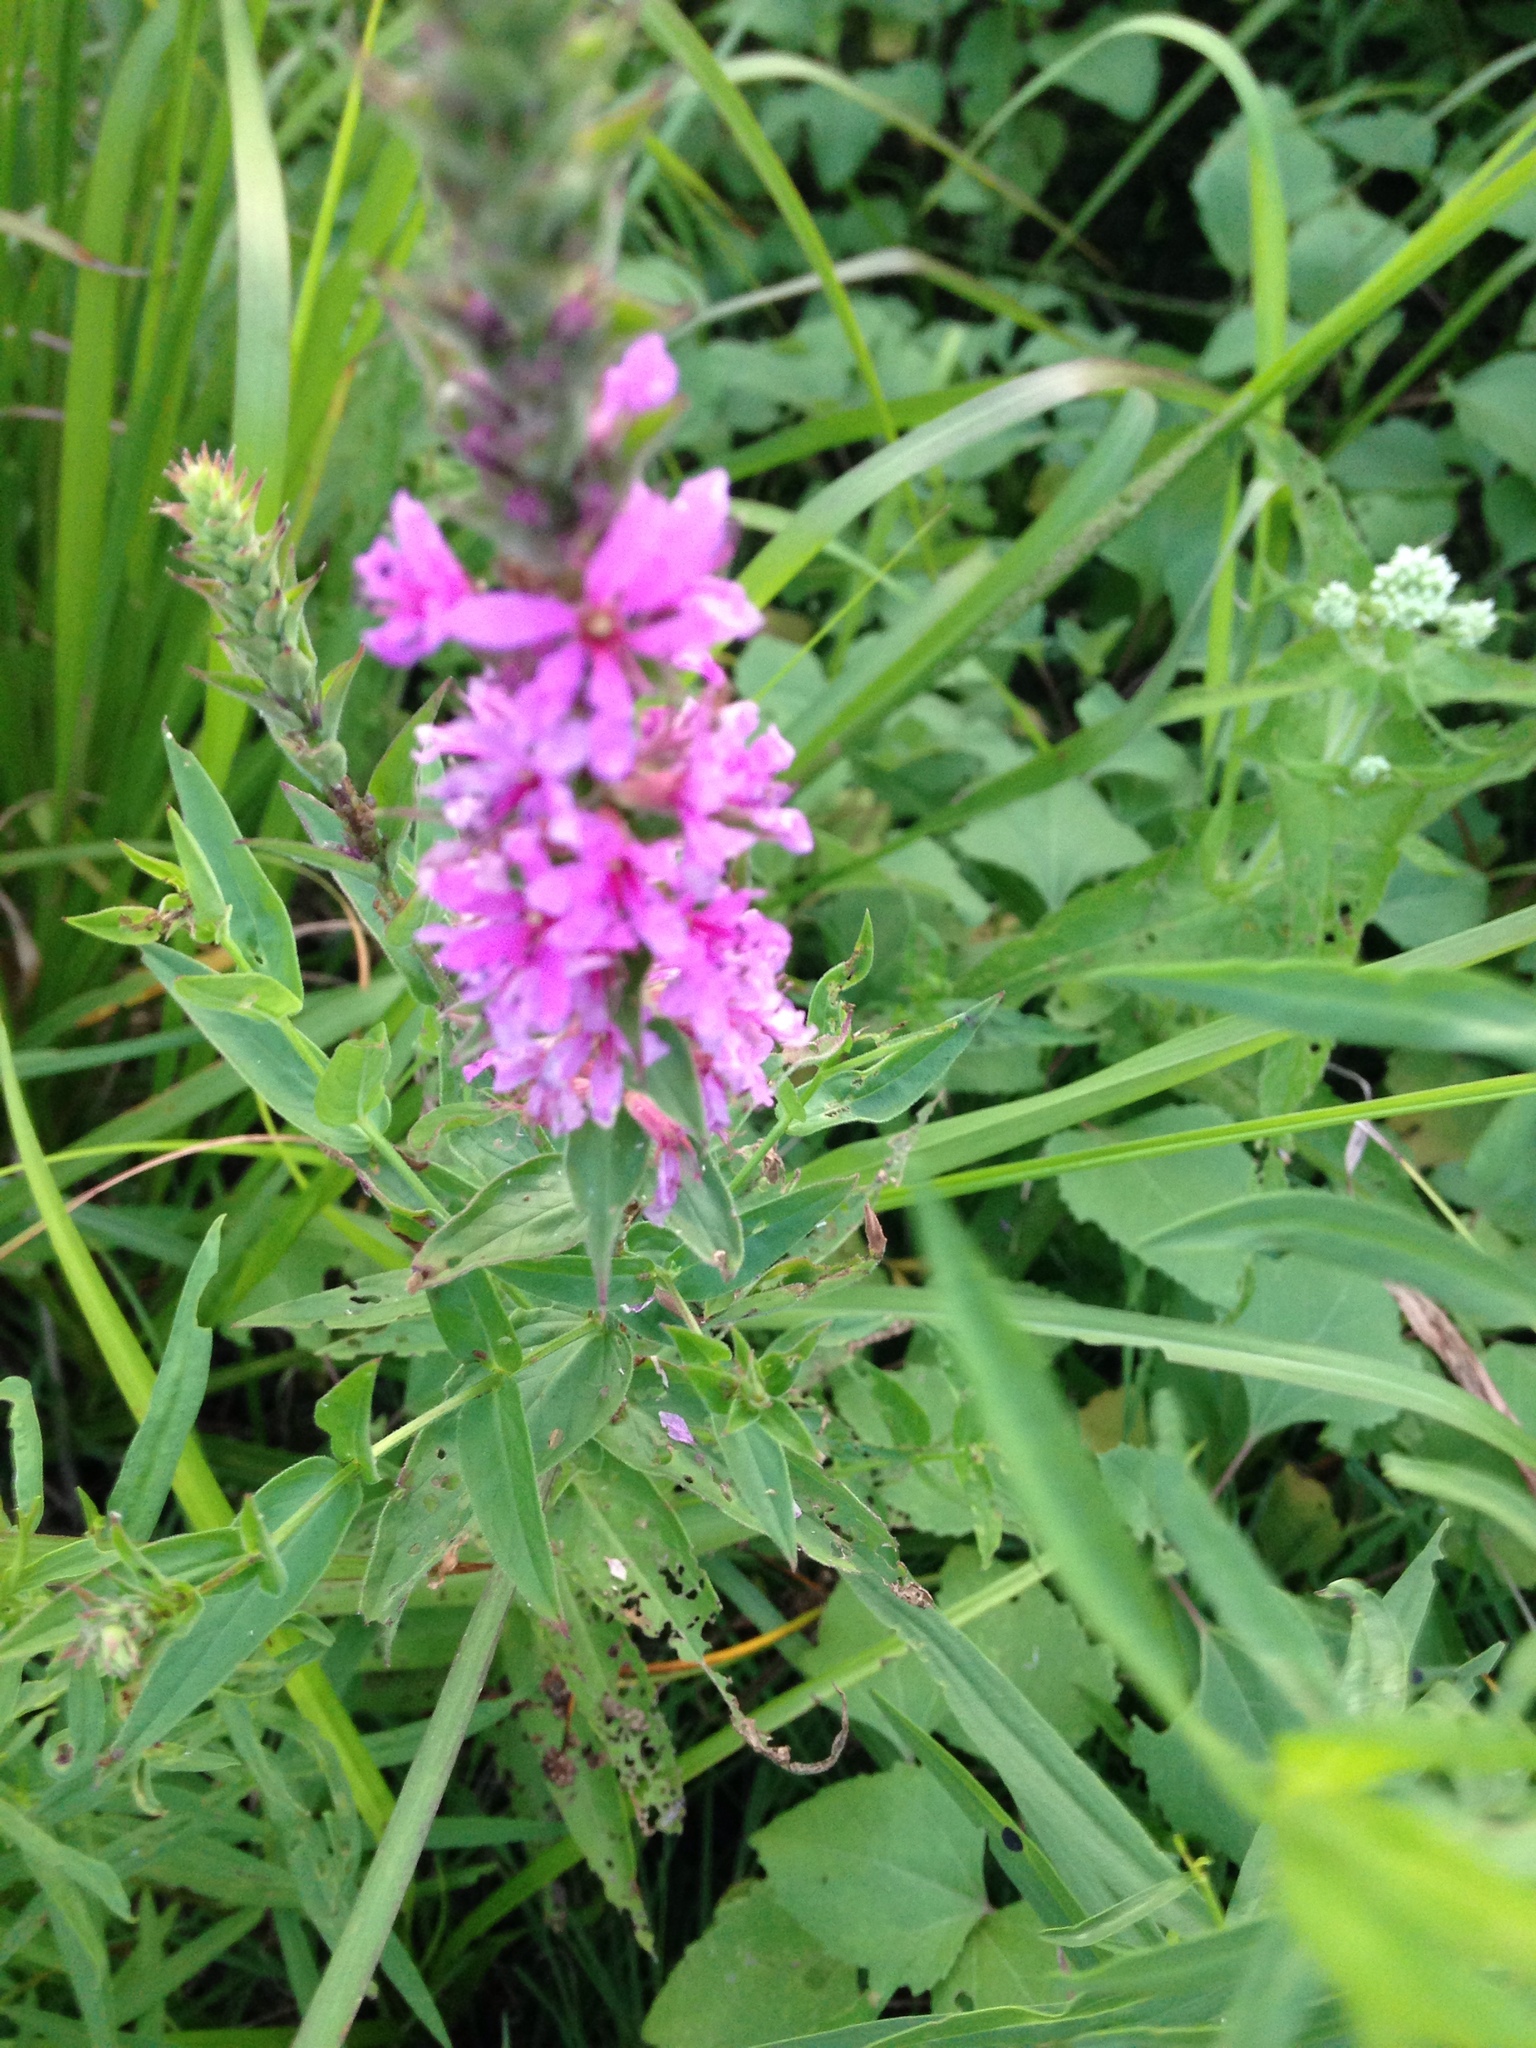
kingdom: Plantae
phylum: Tracheophyta
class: Magnoliopsida
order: Myrtales
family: Lythraceae
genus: Lythrum
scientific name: Lythrum salicaria
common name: Purple loosestrife
